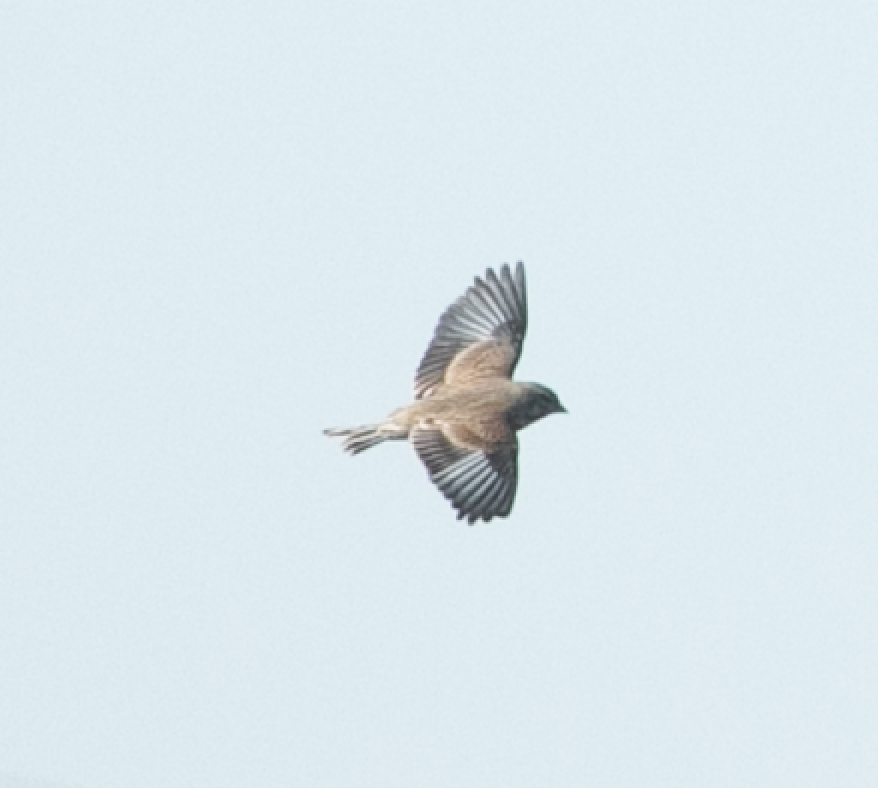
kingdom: Animalia
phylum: Chordata
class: Aves
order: Passeriformes
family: Fringillidae
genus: Linaria
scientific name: Linaria cannabina
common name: Common linnet
